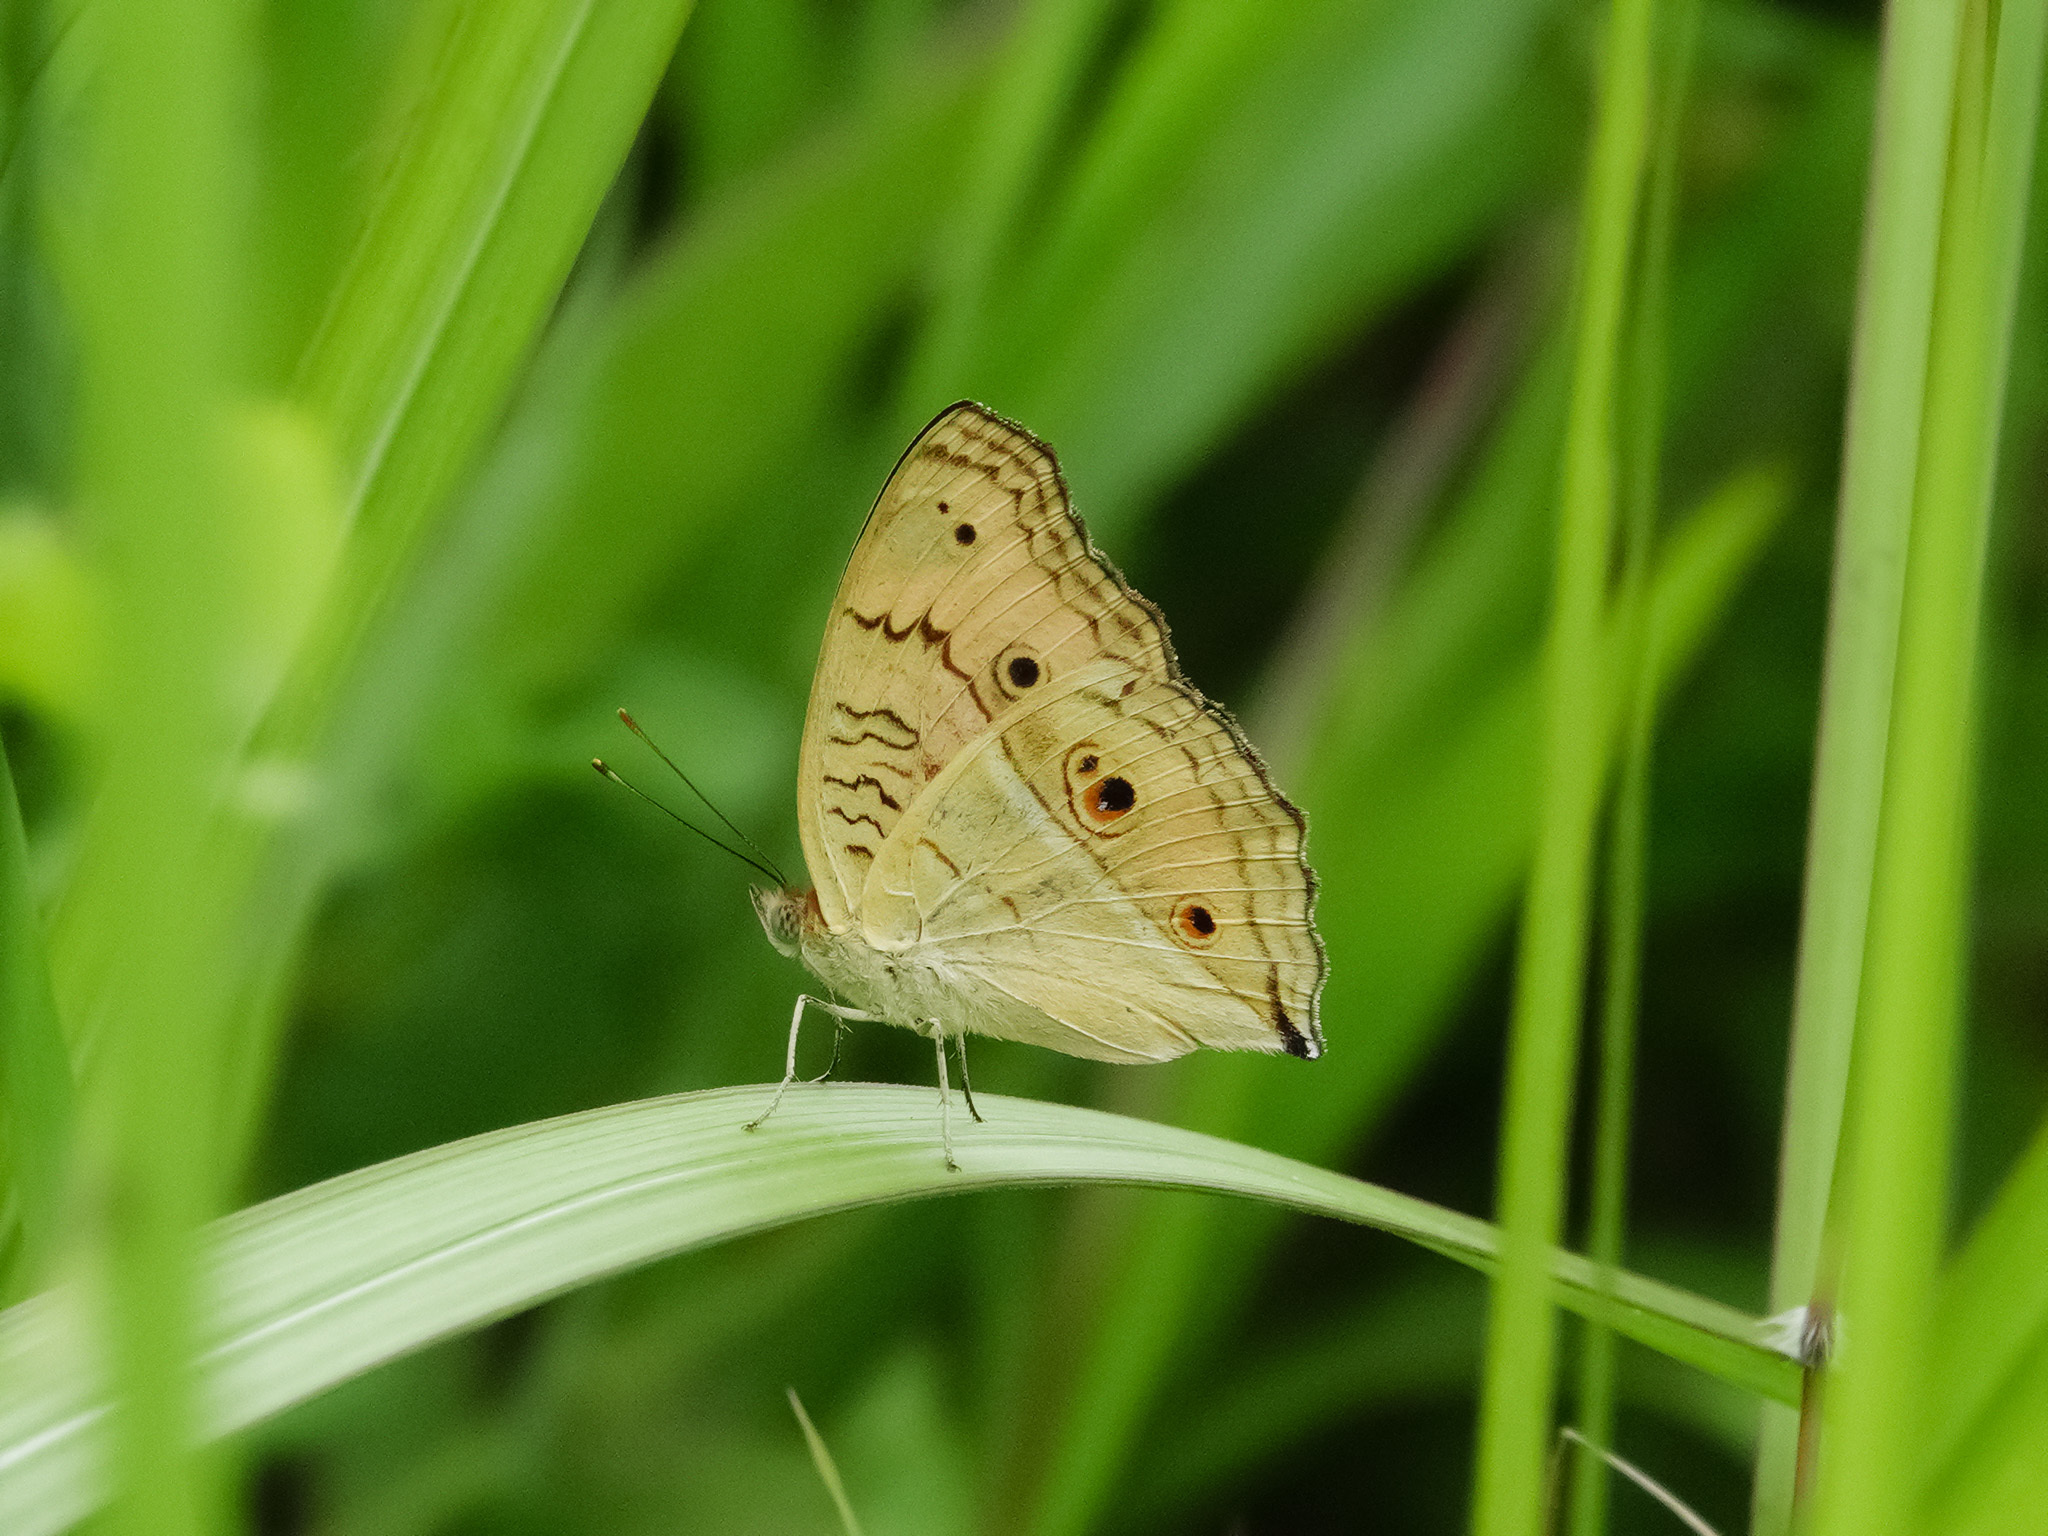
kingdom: Animalia
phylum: Arthropoda
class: Insecta
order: Lepidoptera
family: Nymphalidae
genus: Junonia
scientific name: Junonia almana
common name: Peacock pansy
